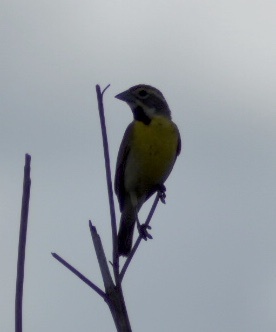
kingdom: Animalia
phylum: Chordata
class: Aves
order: Passeriformes
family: Cardinalidae
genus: Spiza
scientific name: Spiza americana
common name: Dickcissel
